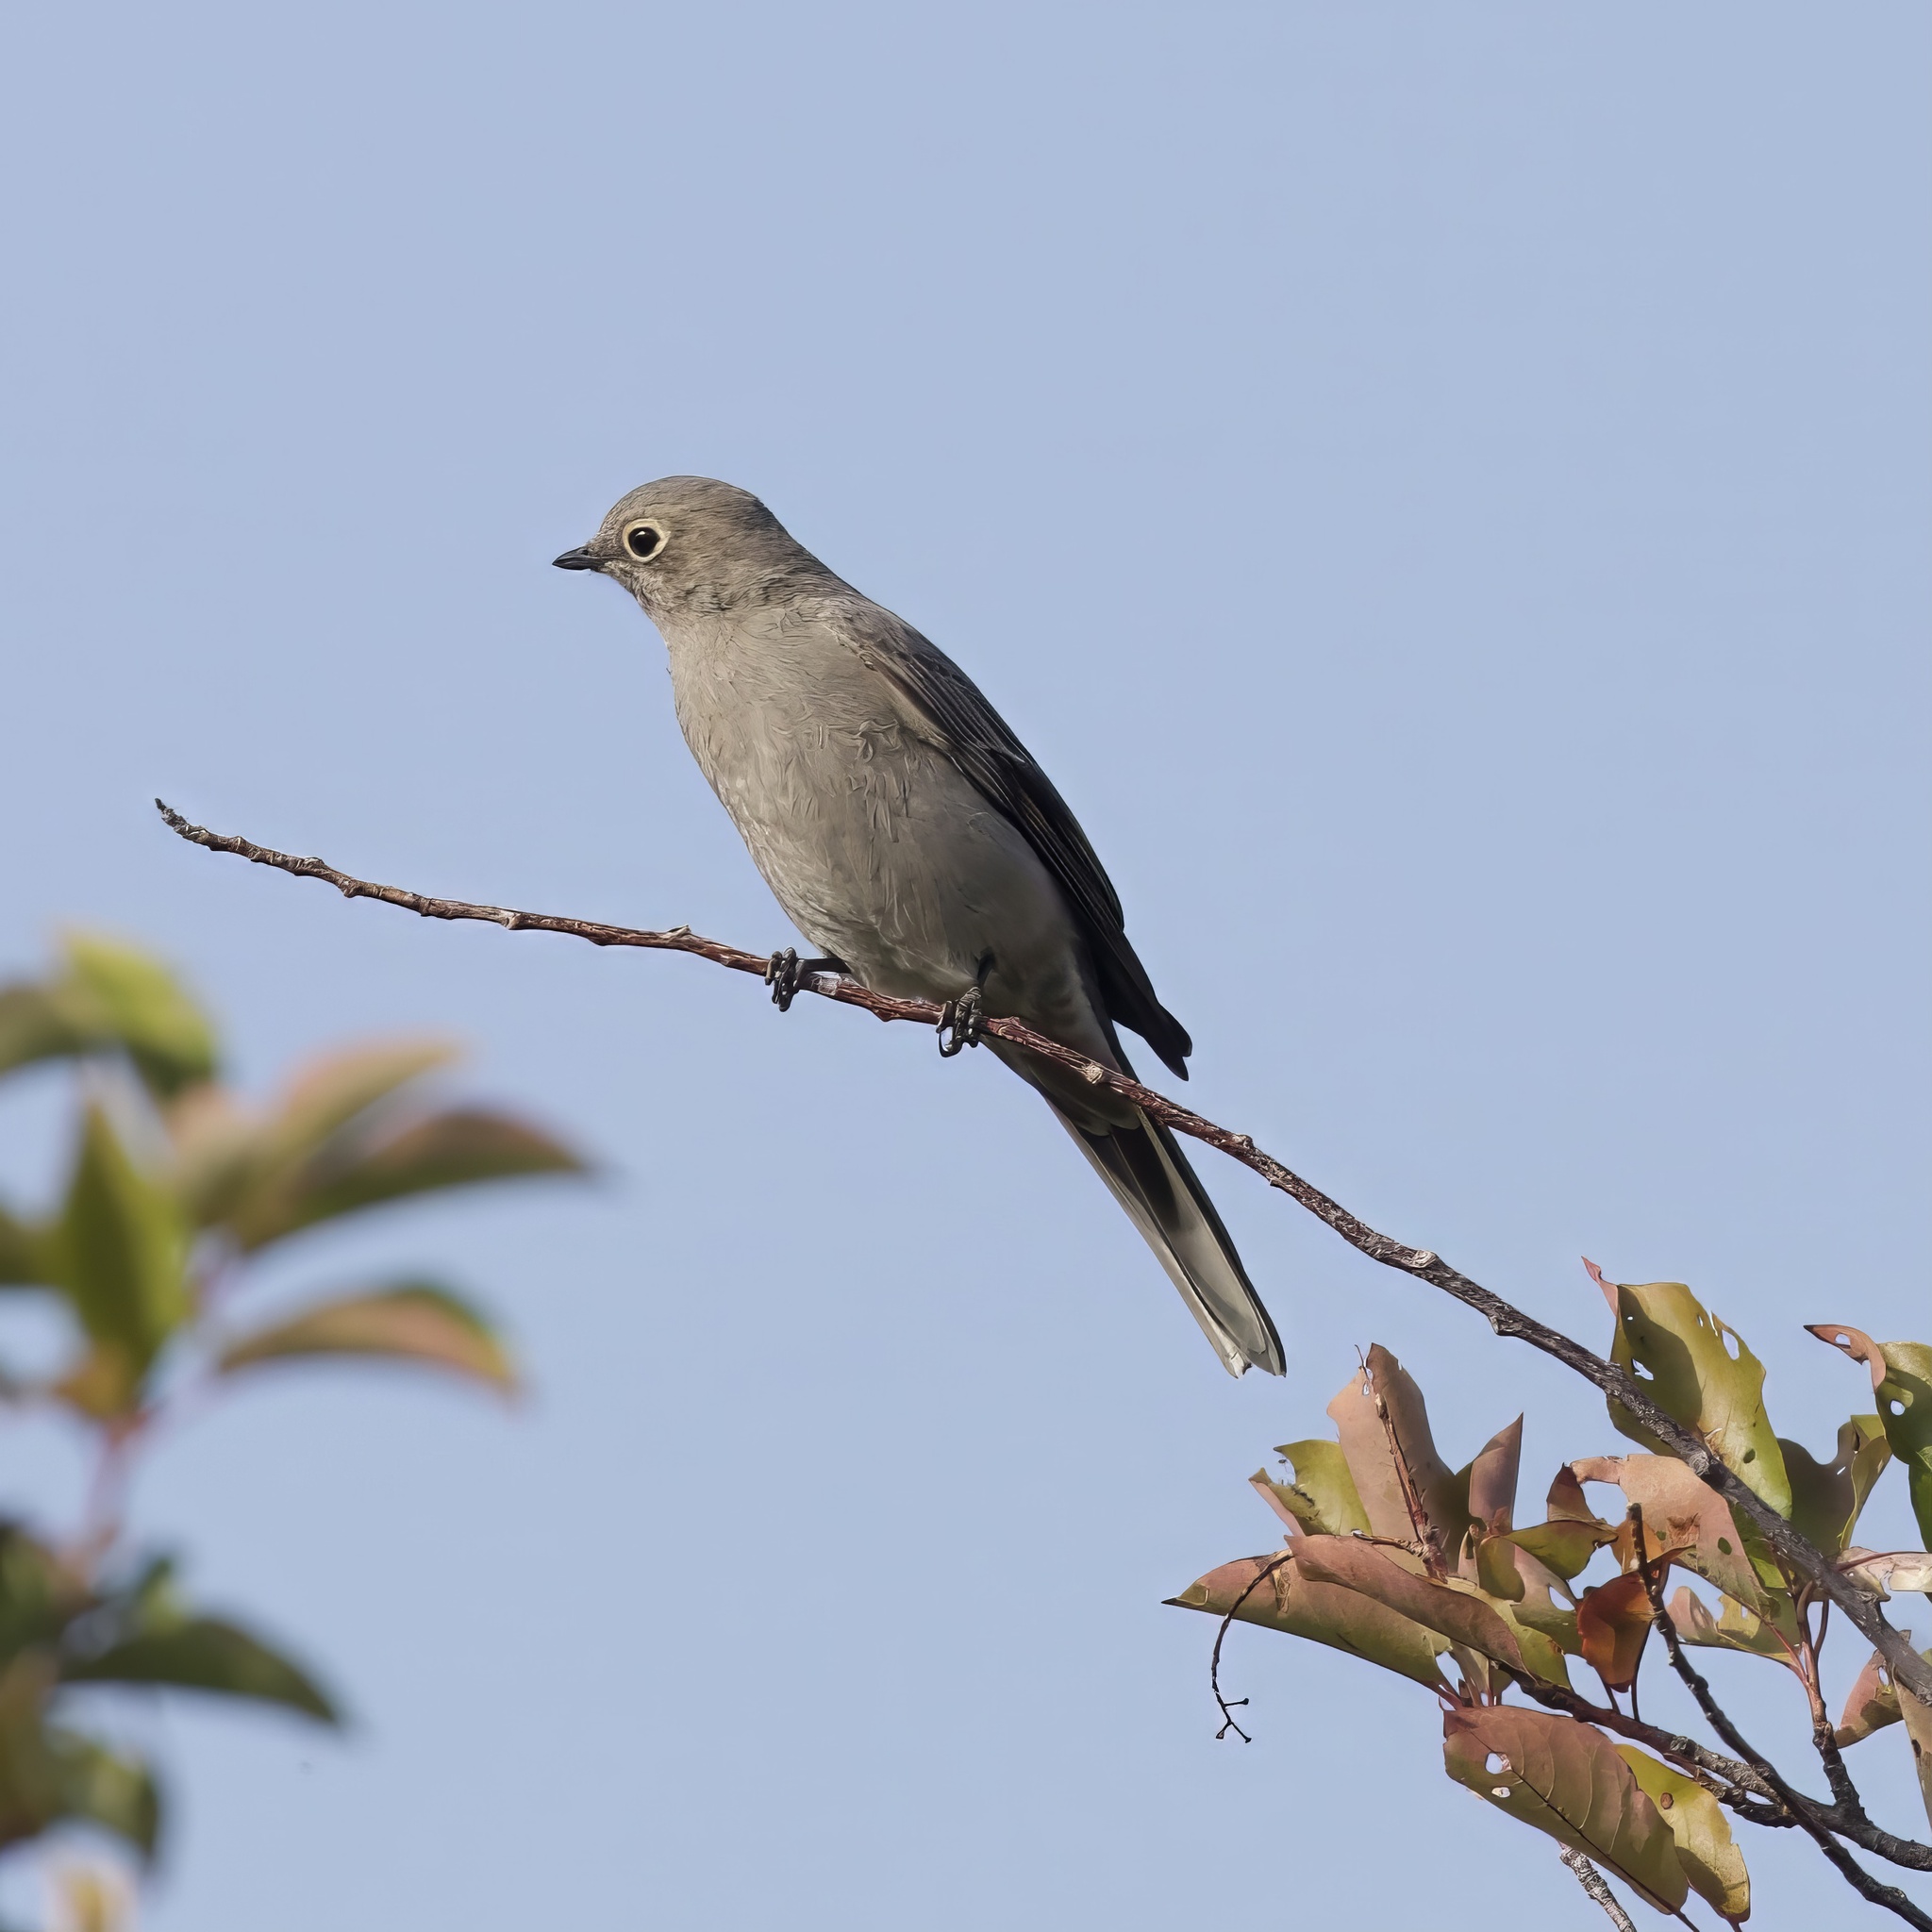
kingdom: Animalia
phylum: Chordata
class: Aves
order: Passeriformes
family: Turdidae
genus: Myadestes
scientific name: Myadestes townsendi
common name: Townsend's solitaire
